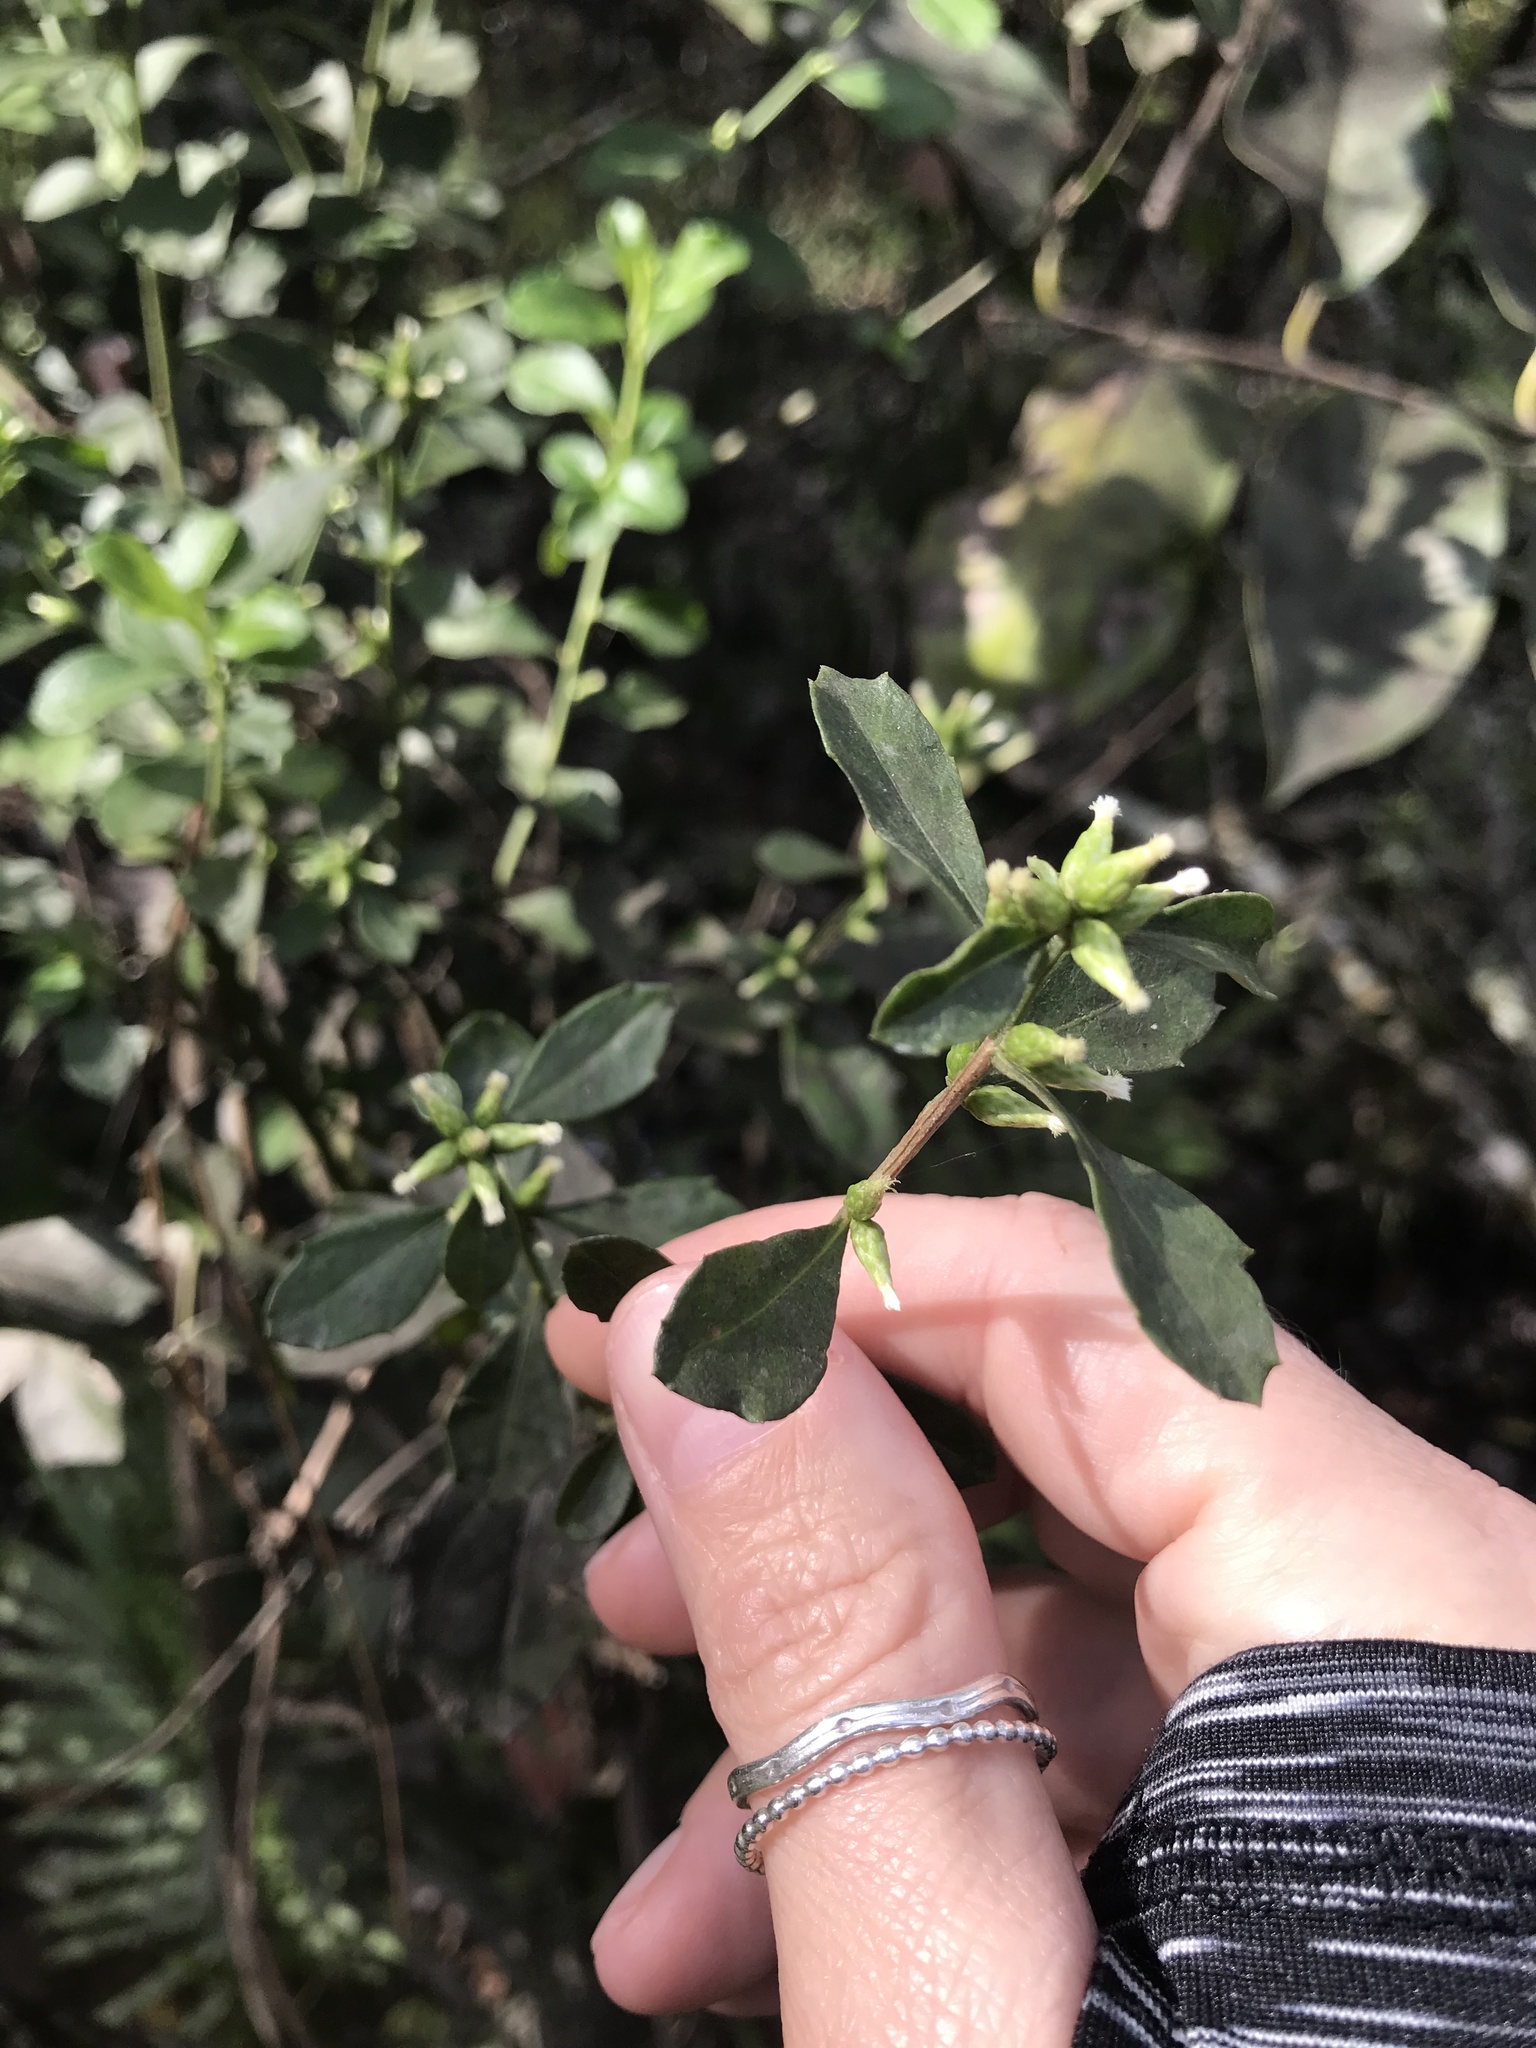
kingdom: Plantae
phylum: Tracheophyta
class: Magnoliopsida
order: Asterales
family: Asteraceae
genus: Baccharis
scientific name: Baccharis glomeruliflora
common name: Silverling groundsel bush
